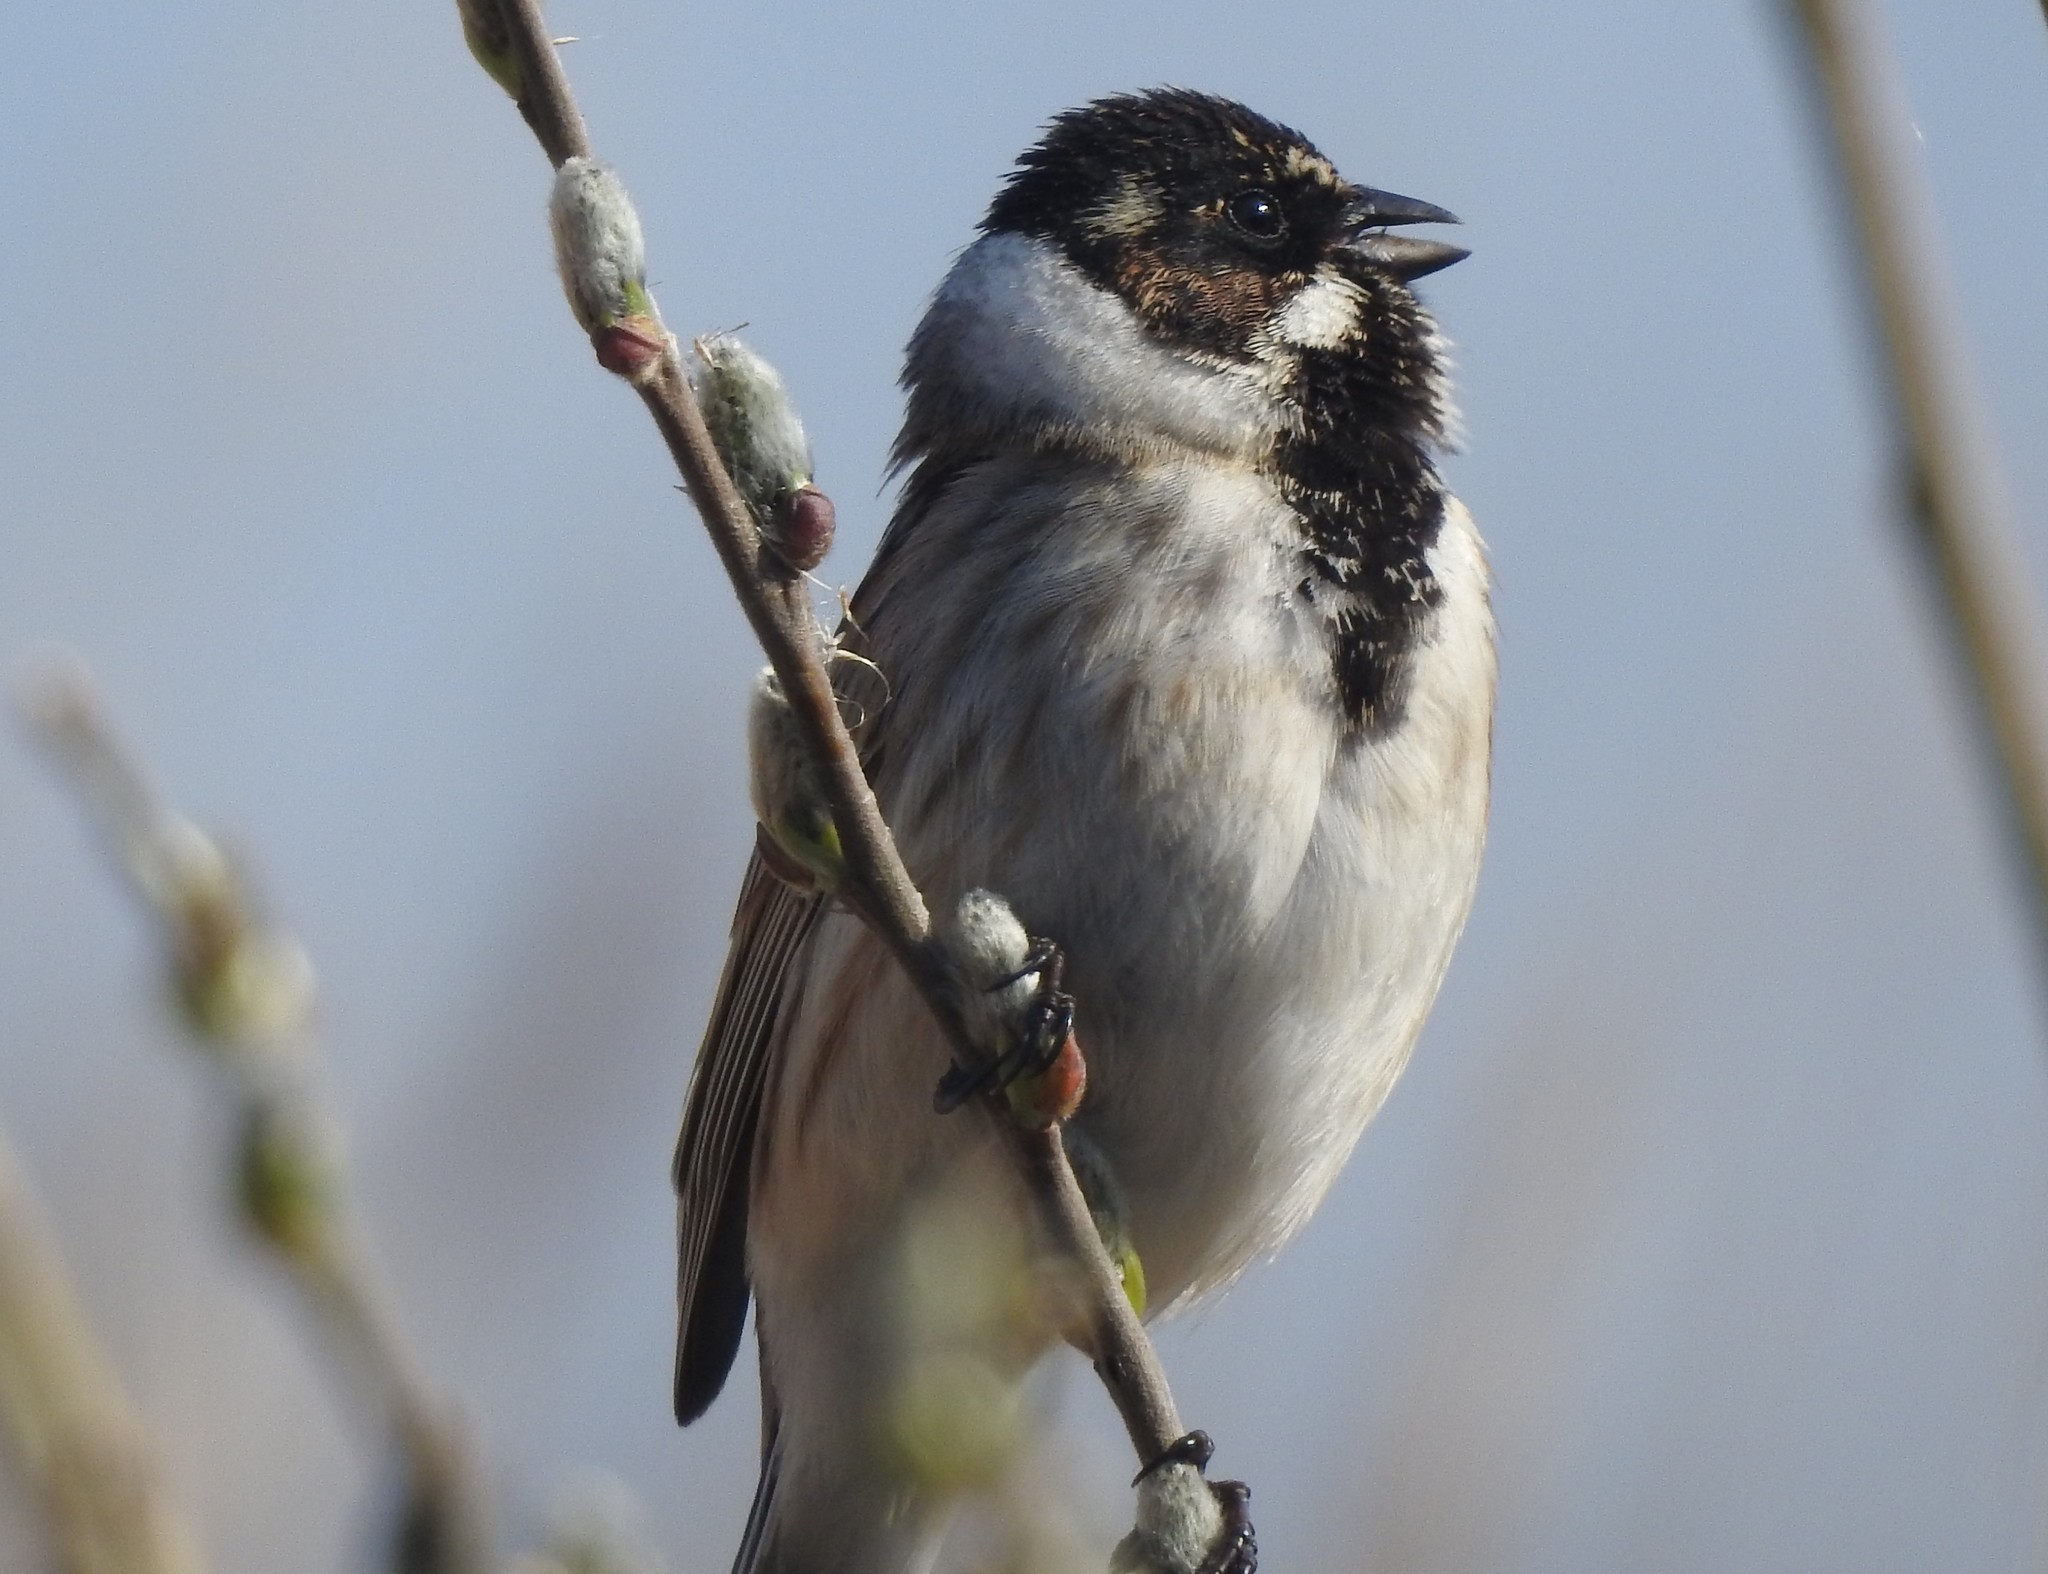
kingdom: Animalia
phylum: Chordata
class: Aves
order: Passeriformes
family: Emberizidae
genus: Emberiza
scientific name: Emberiza schoeniclus
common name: Reed bunting
